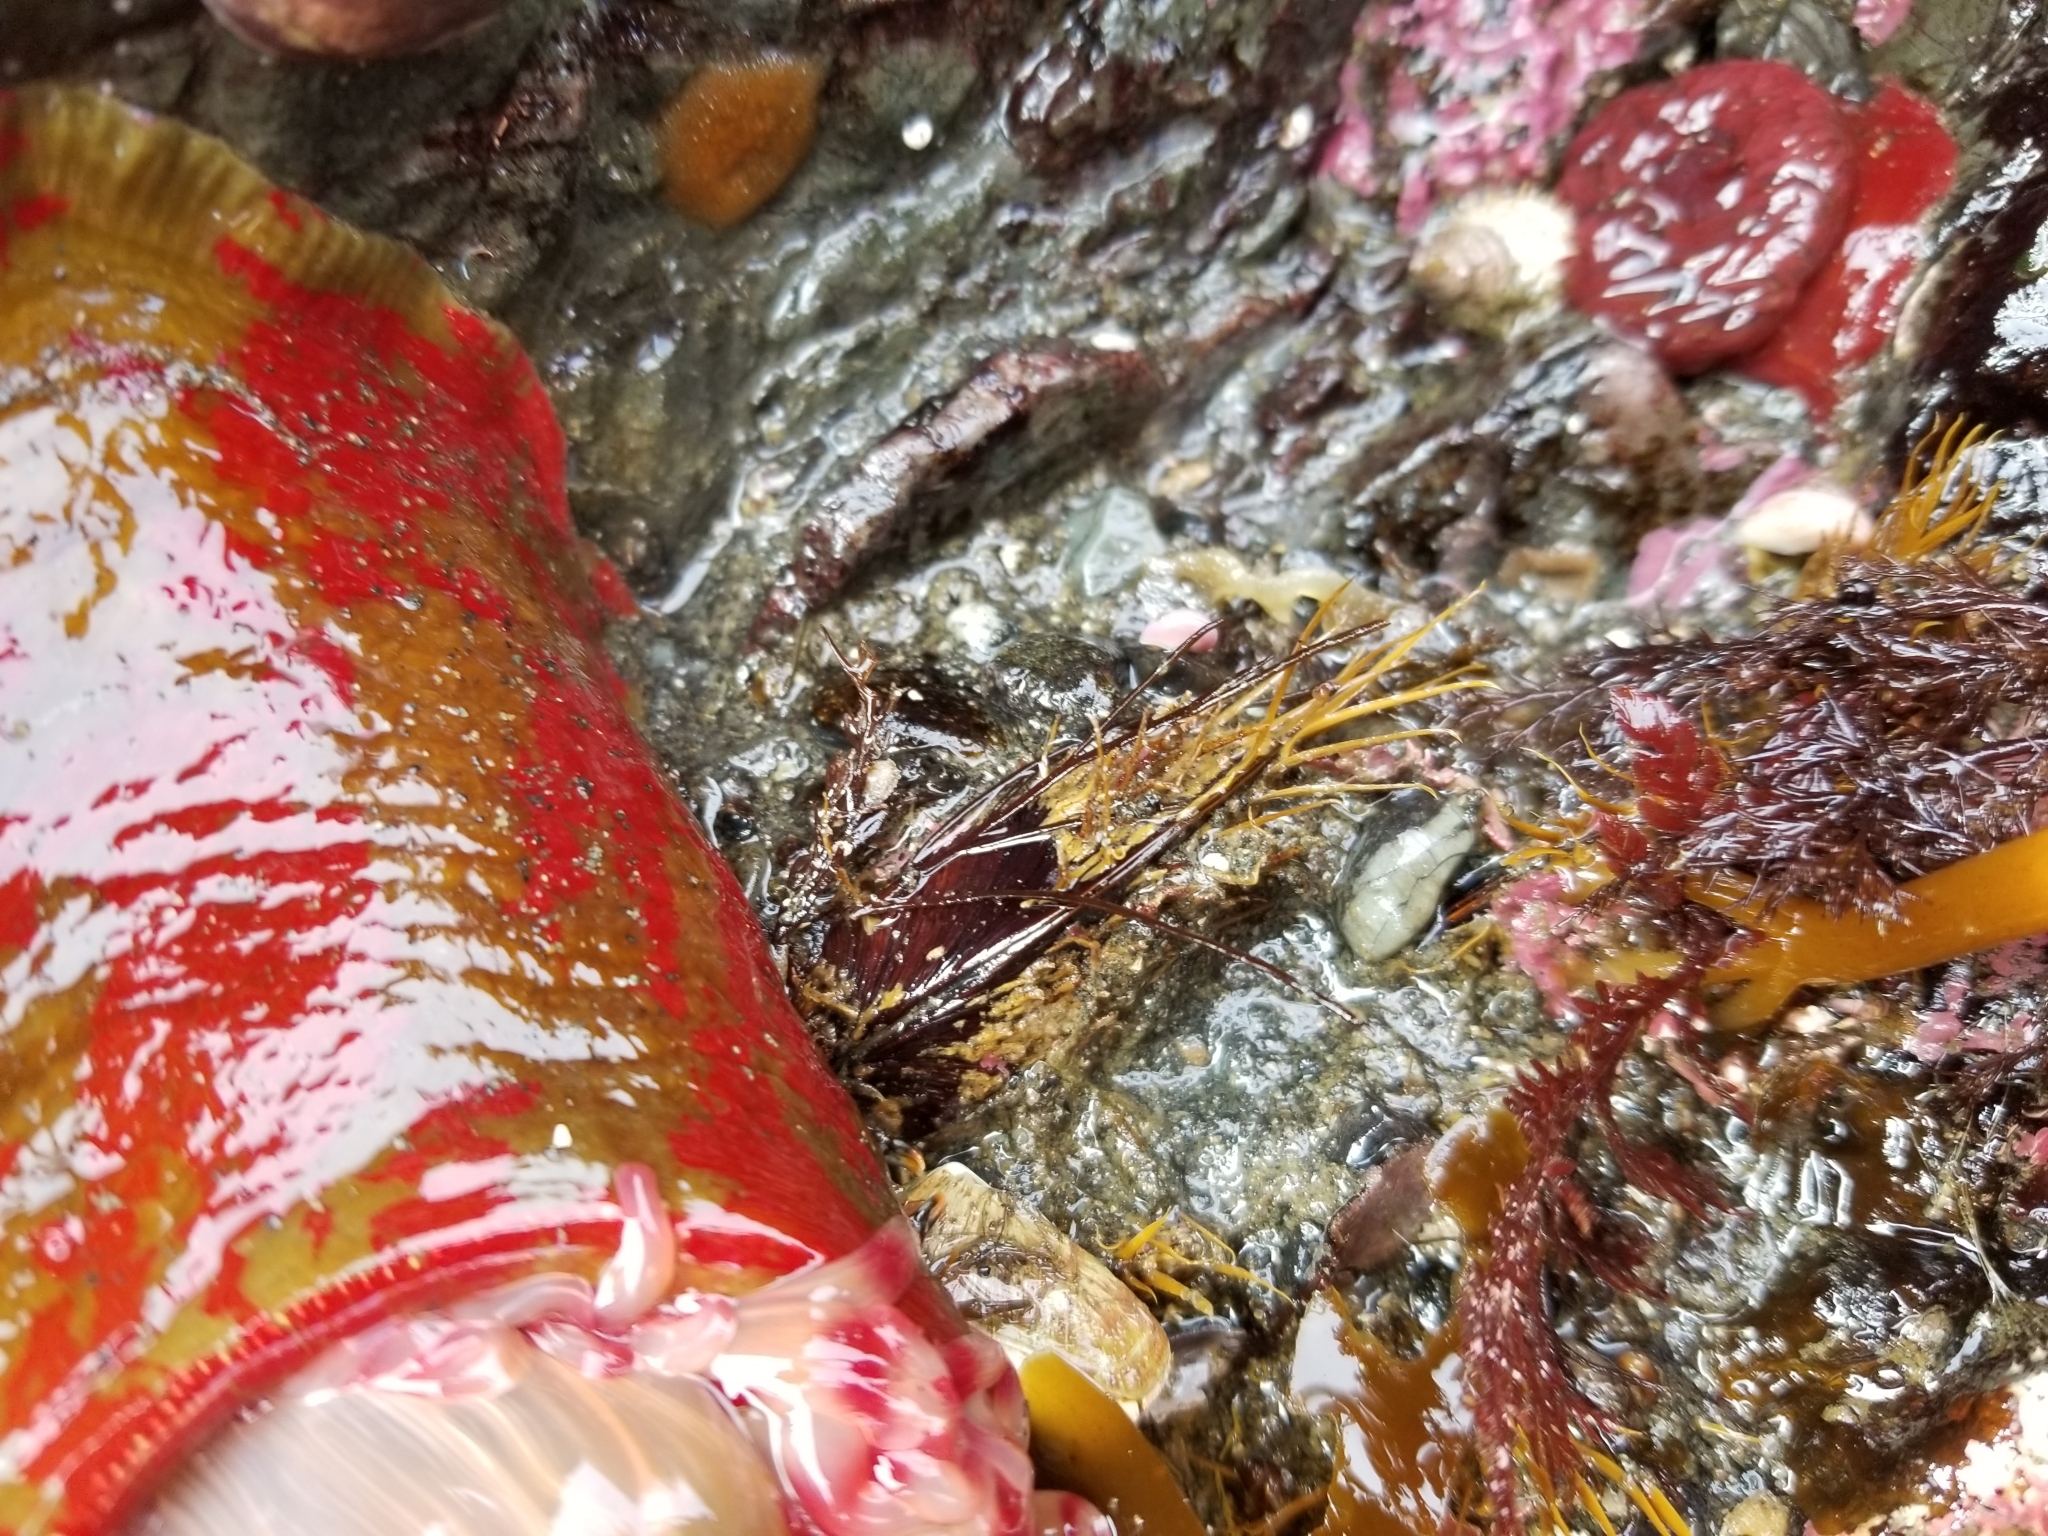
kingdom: Animalia
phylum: Mollusca
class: Bivalvia
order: Mytilida
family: Mytilidae
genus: Modiolus
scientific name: Modiolus modiolus
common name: Horse-mussel
